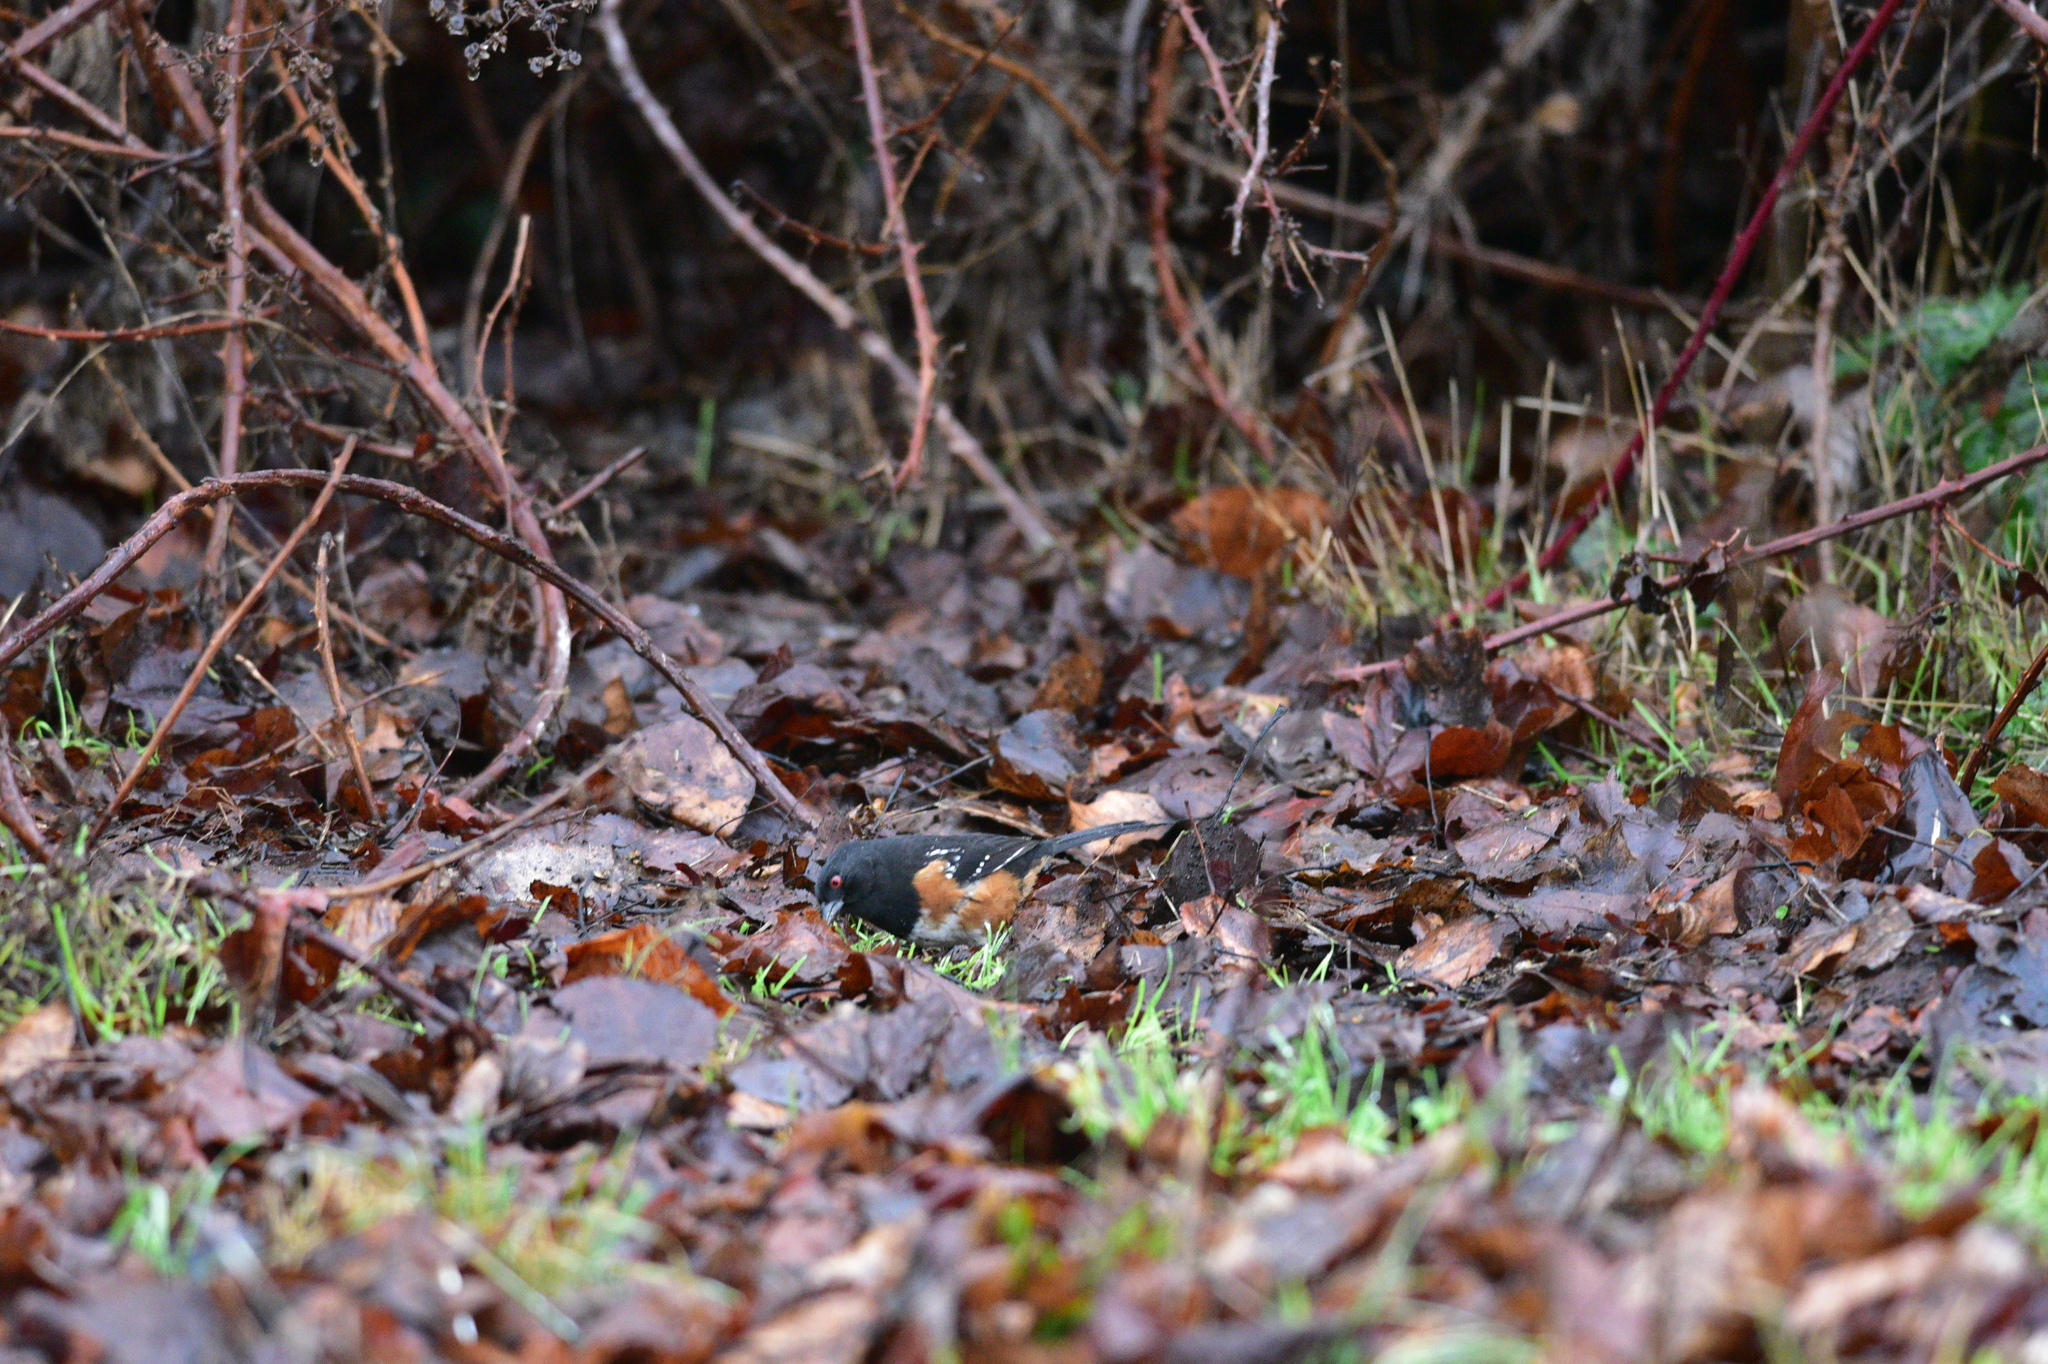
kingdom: Animalia
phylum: Chordata
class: Aves
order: Passeriformes
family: Passerellidae
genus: Pipilo
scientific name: Pipilo maculatus
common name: Spotted towhee
